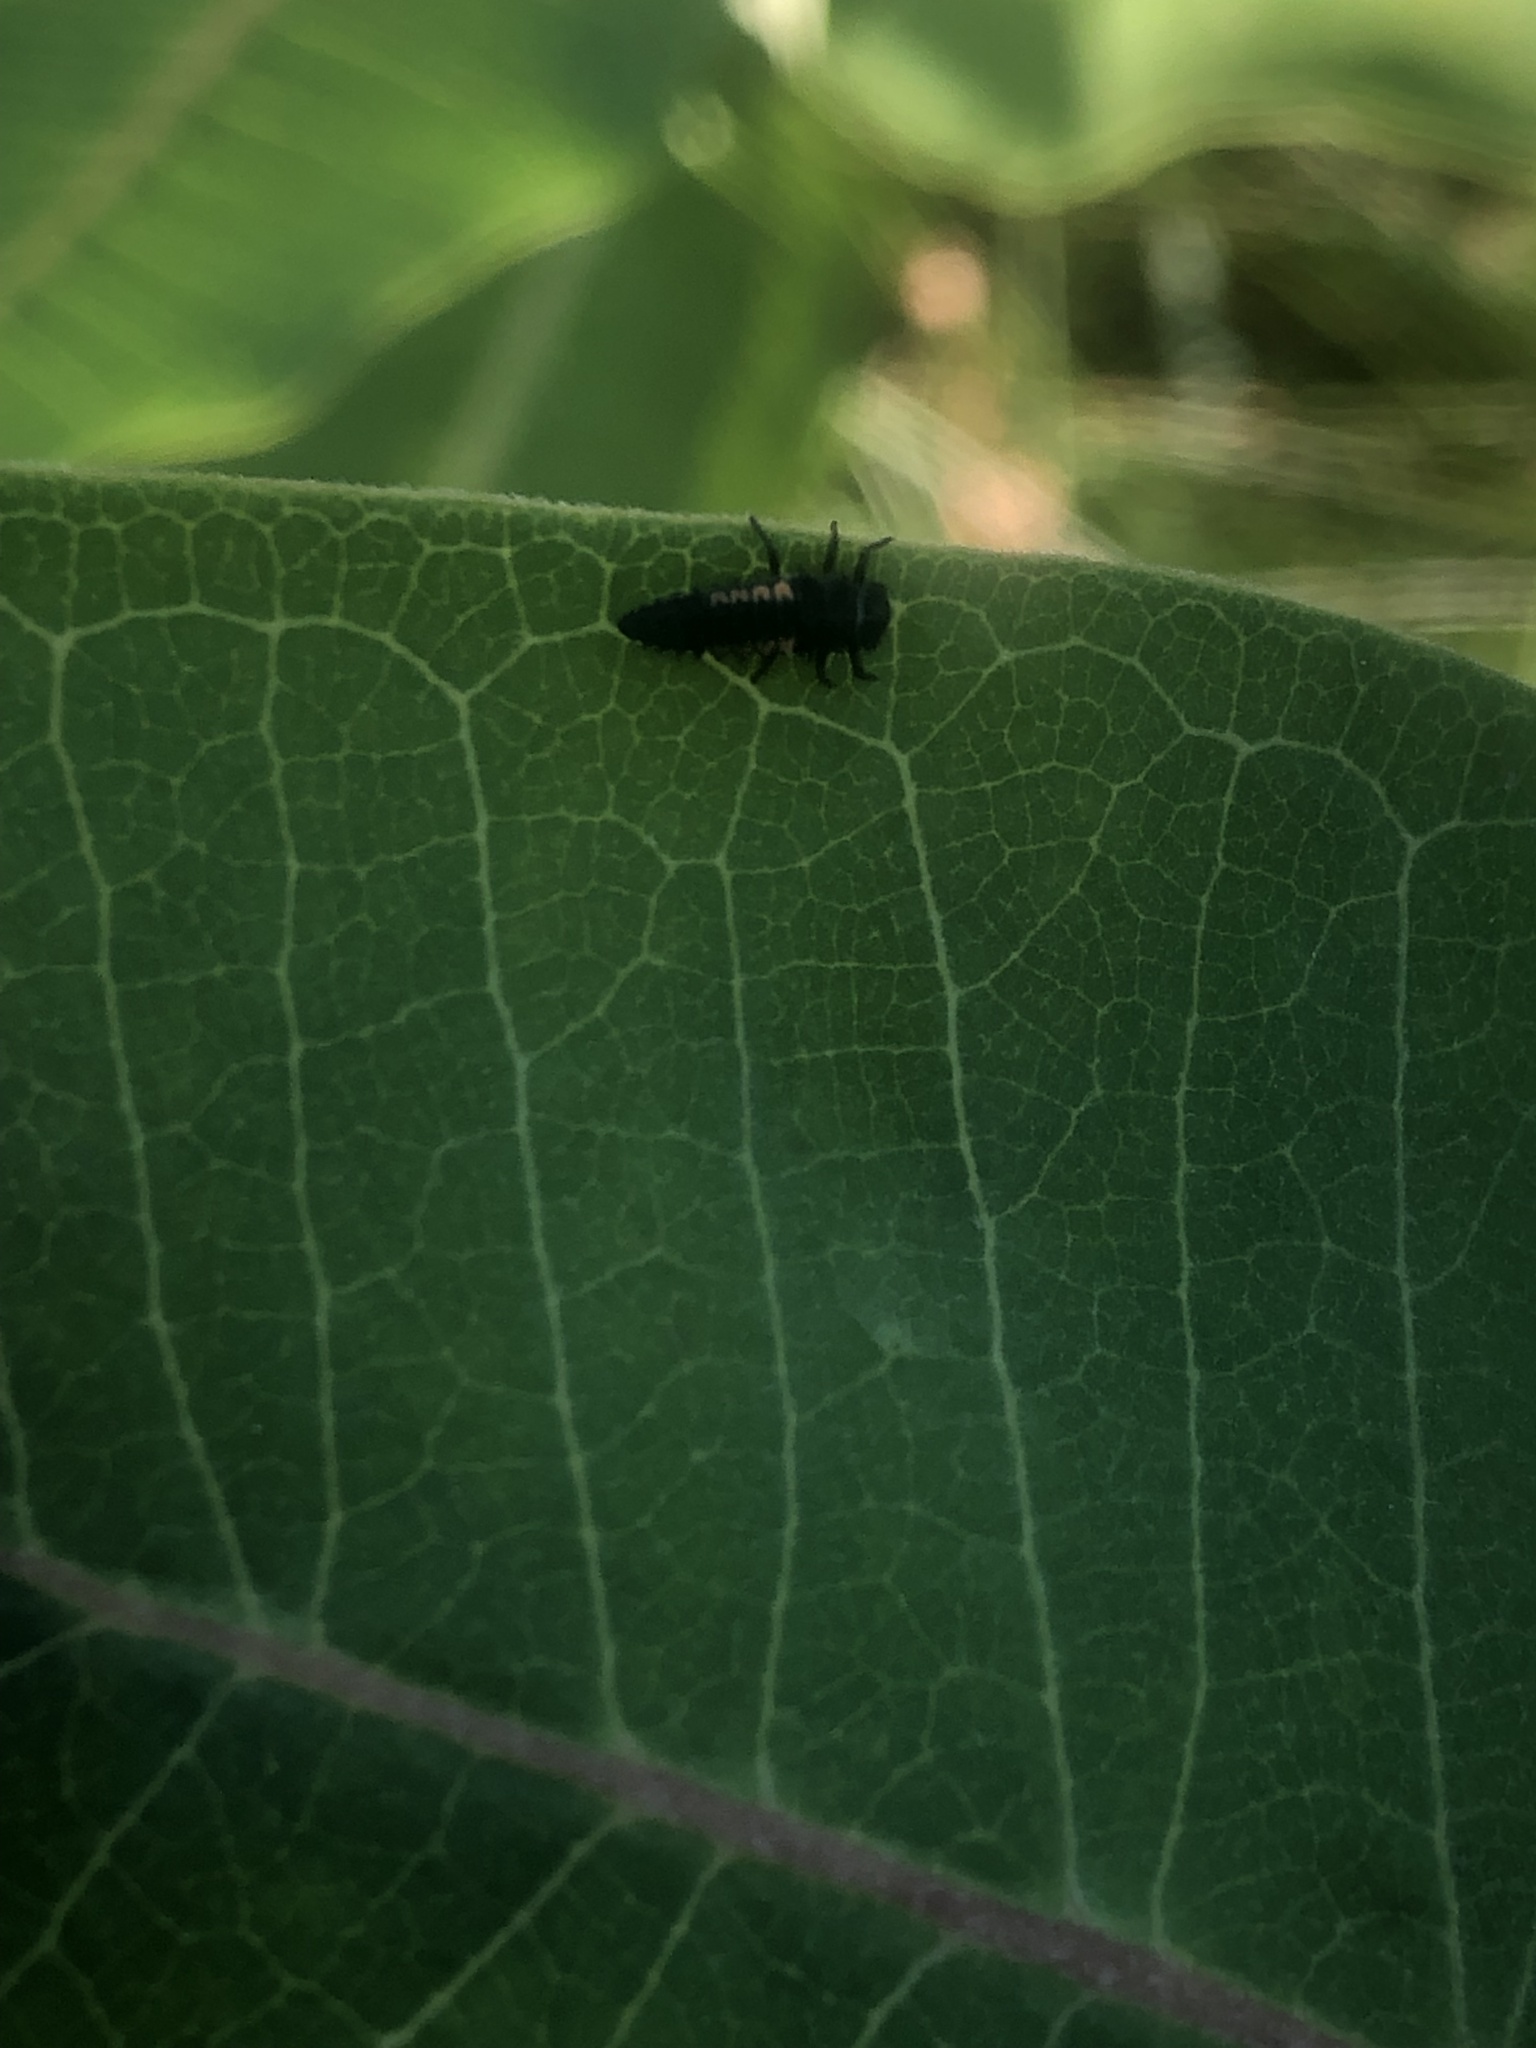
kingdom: Animalia
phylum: Arthropoda
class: Insecta
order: Coleoptera
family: Coccinellidae
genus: Harmonia
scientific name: Harmonia axyridis
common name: Harlequin ladybird
